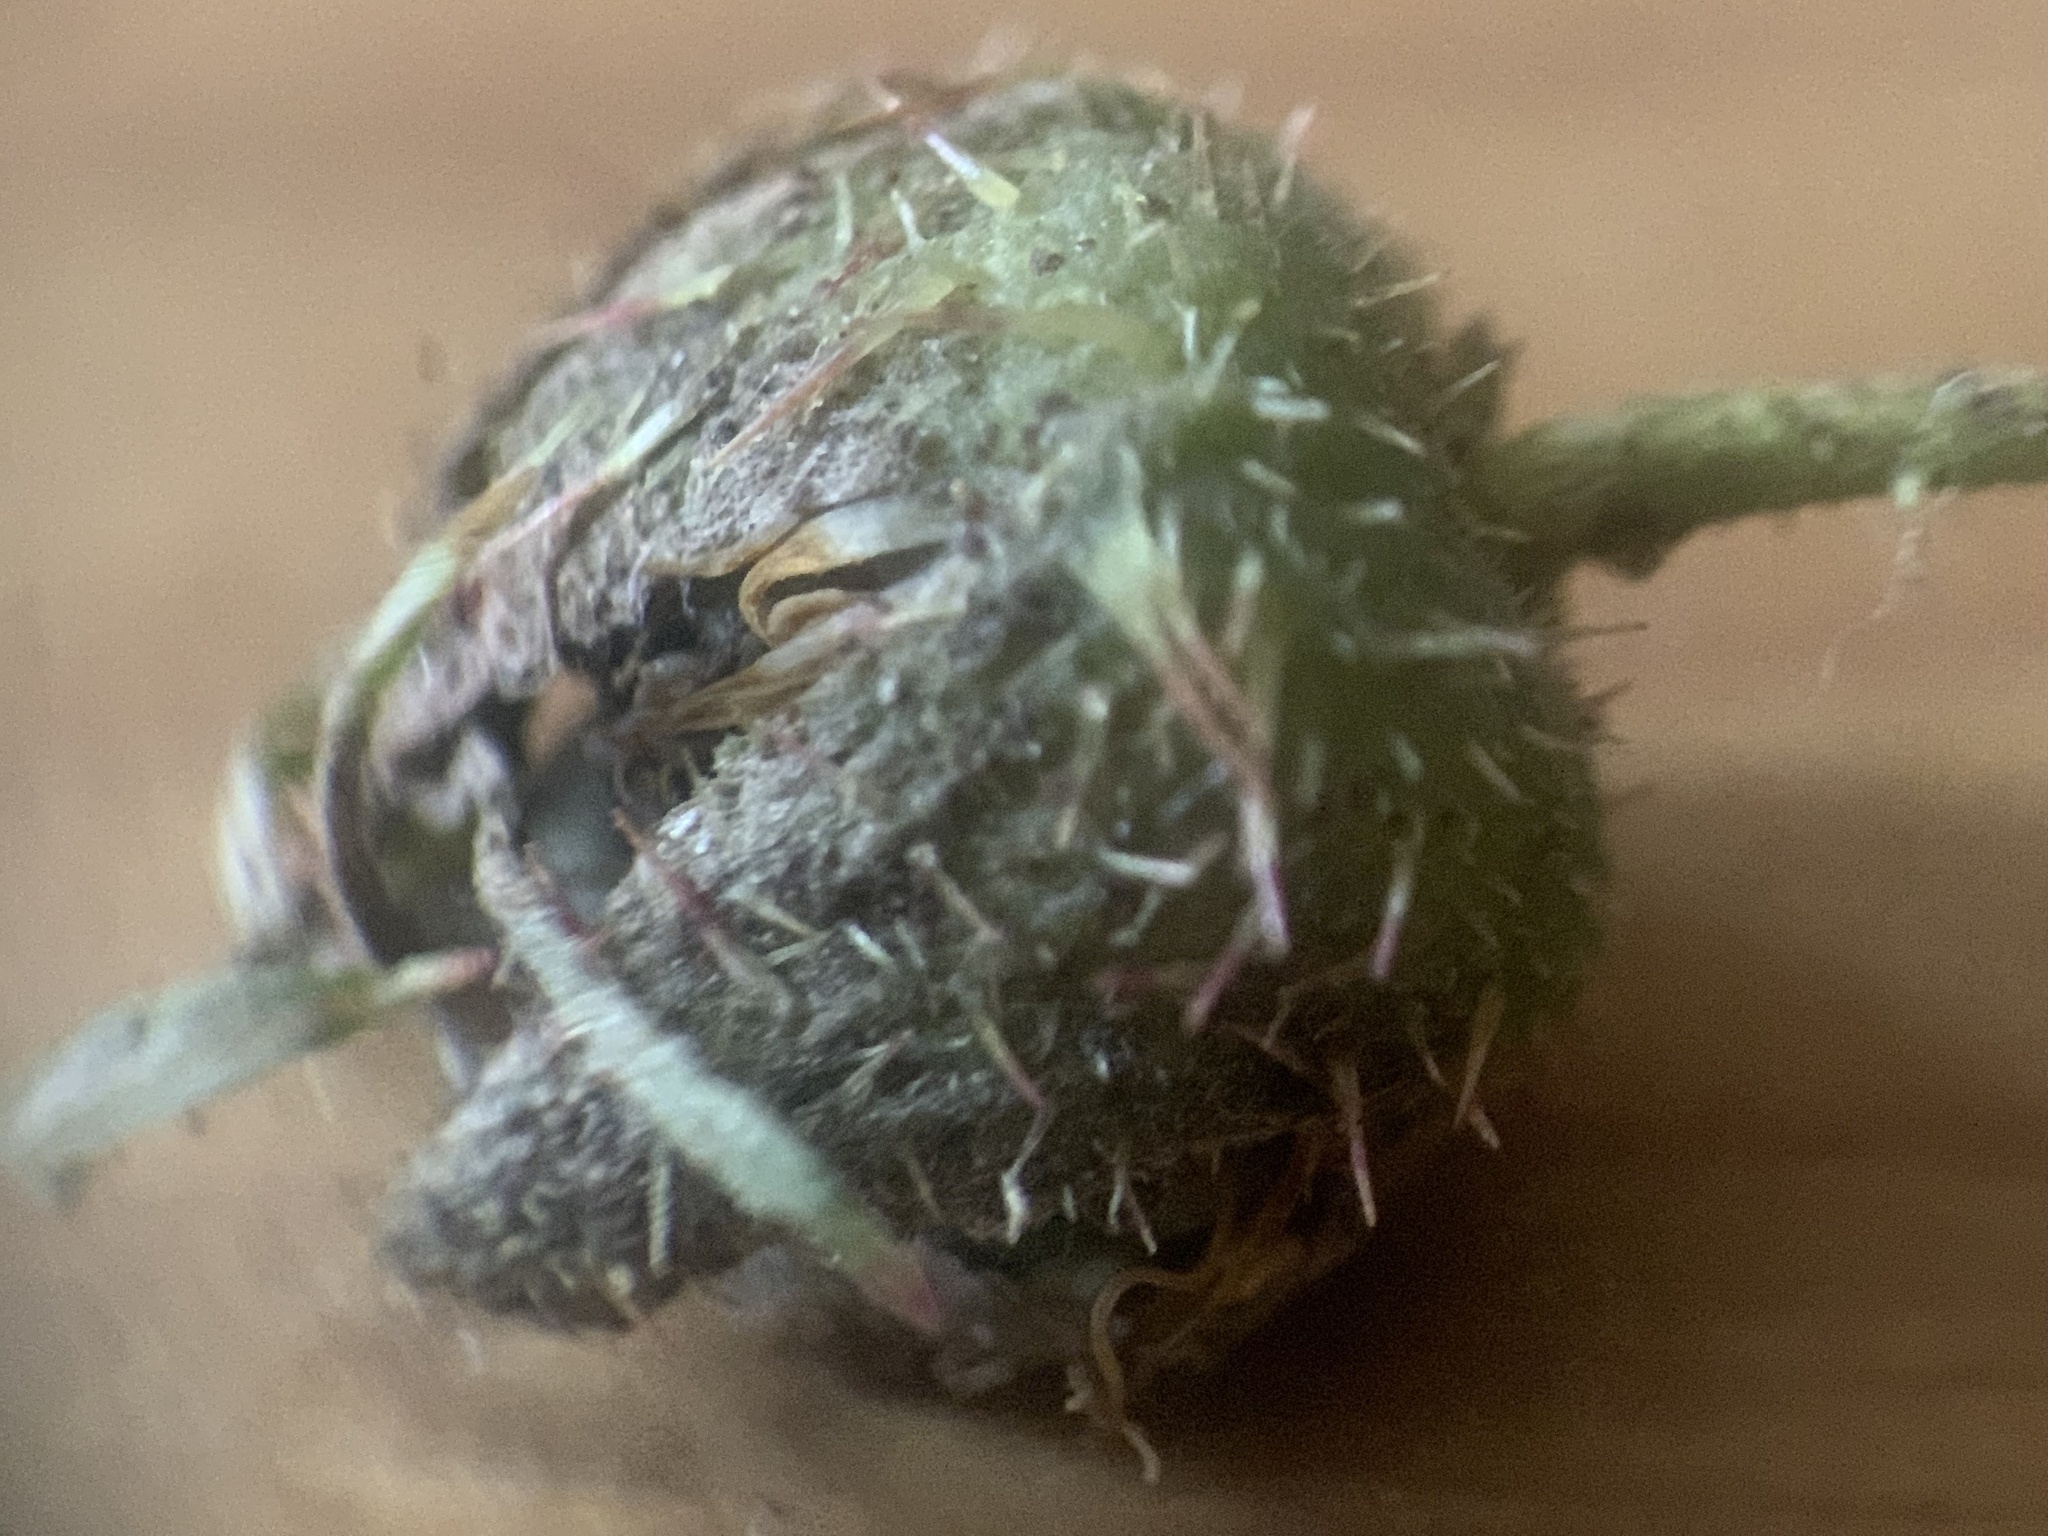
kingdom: Plantae
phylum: Tracheophyta
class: Magnoliopsida
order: Rosales
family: Rosaceae
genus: Rubus
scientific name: Rubus idaeus
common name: Raspberry
